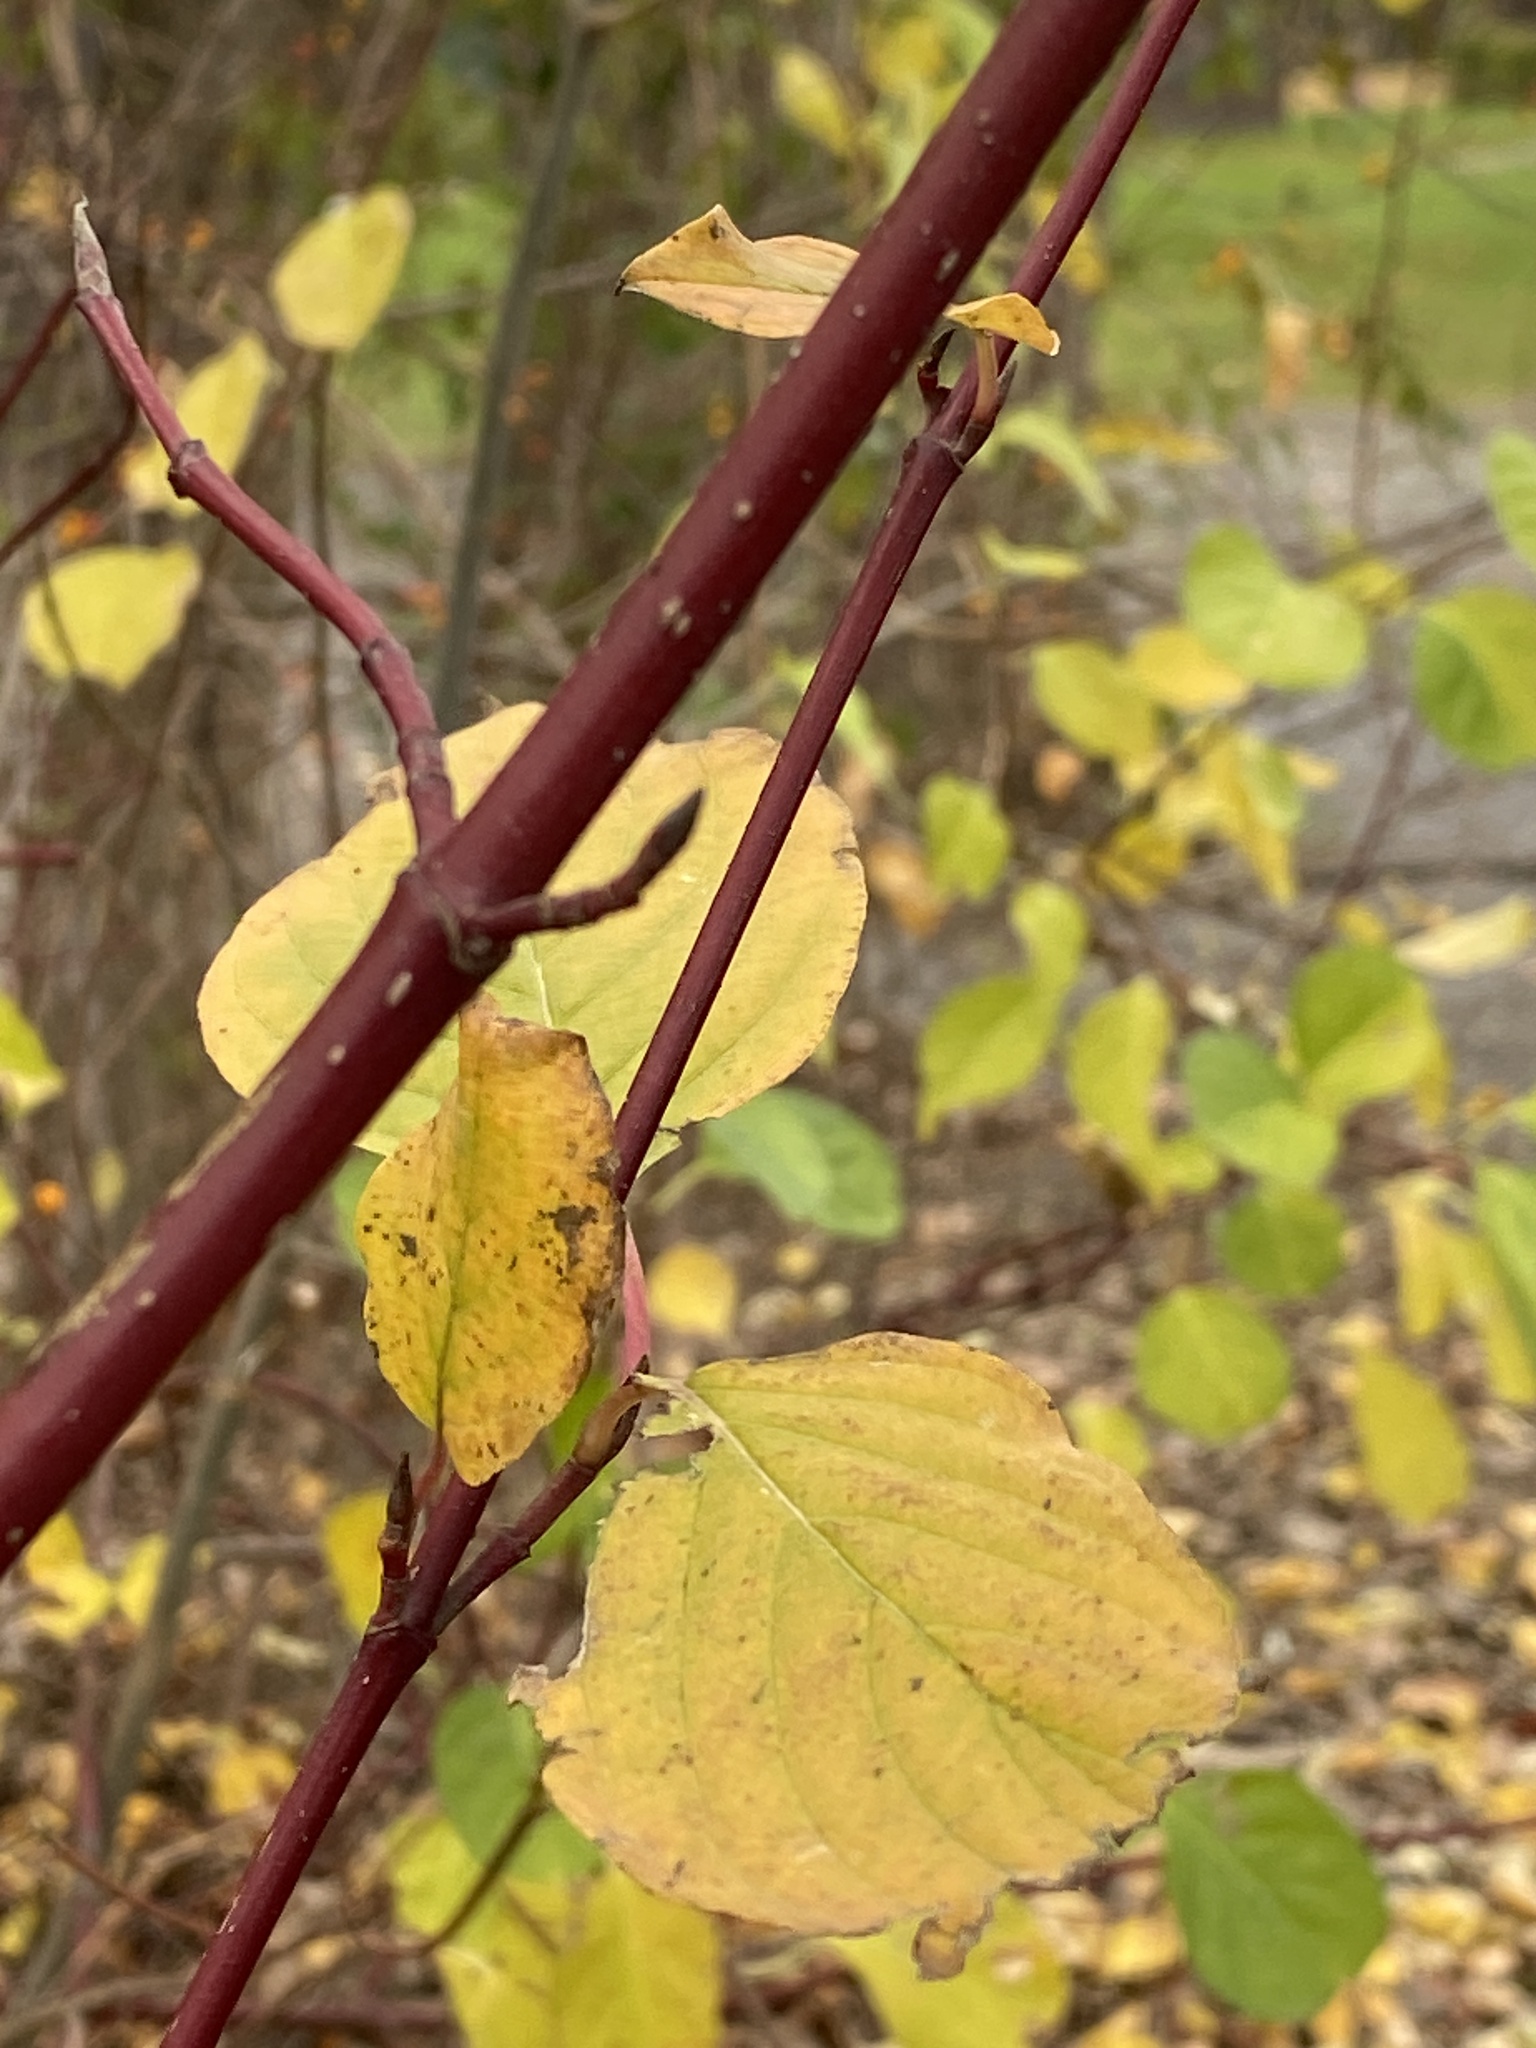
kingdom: Plantae
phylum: Tracheophyta
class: Magnoliopsida
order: Cornales
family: Cornaceae
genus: Cornus
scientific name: Cornus sericea
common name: Red-osier dogwood
